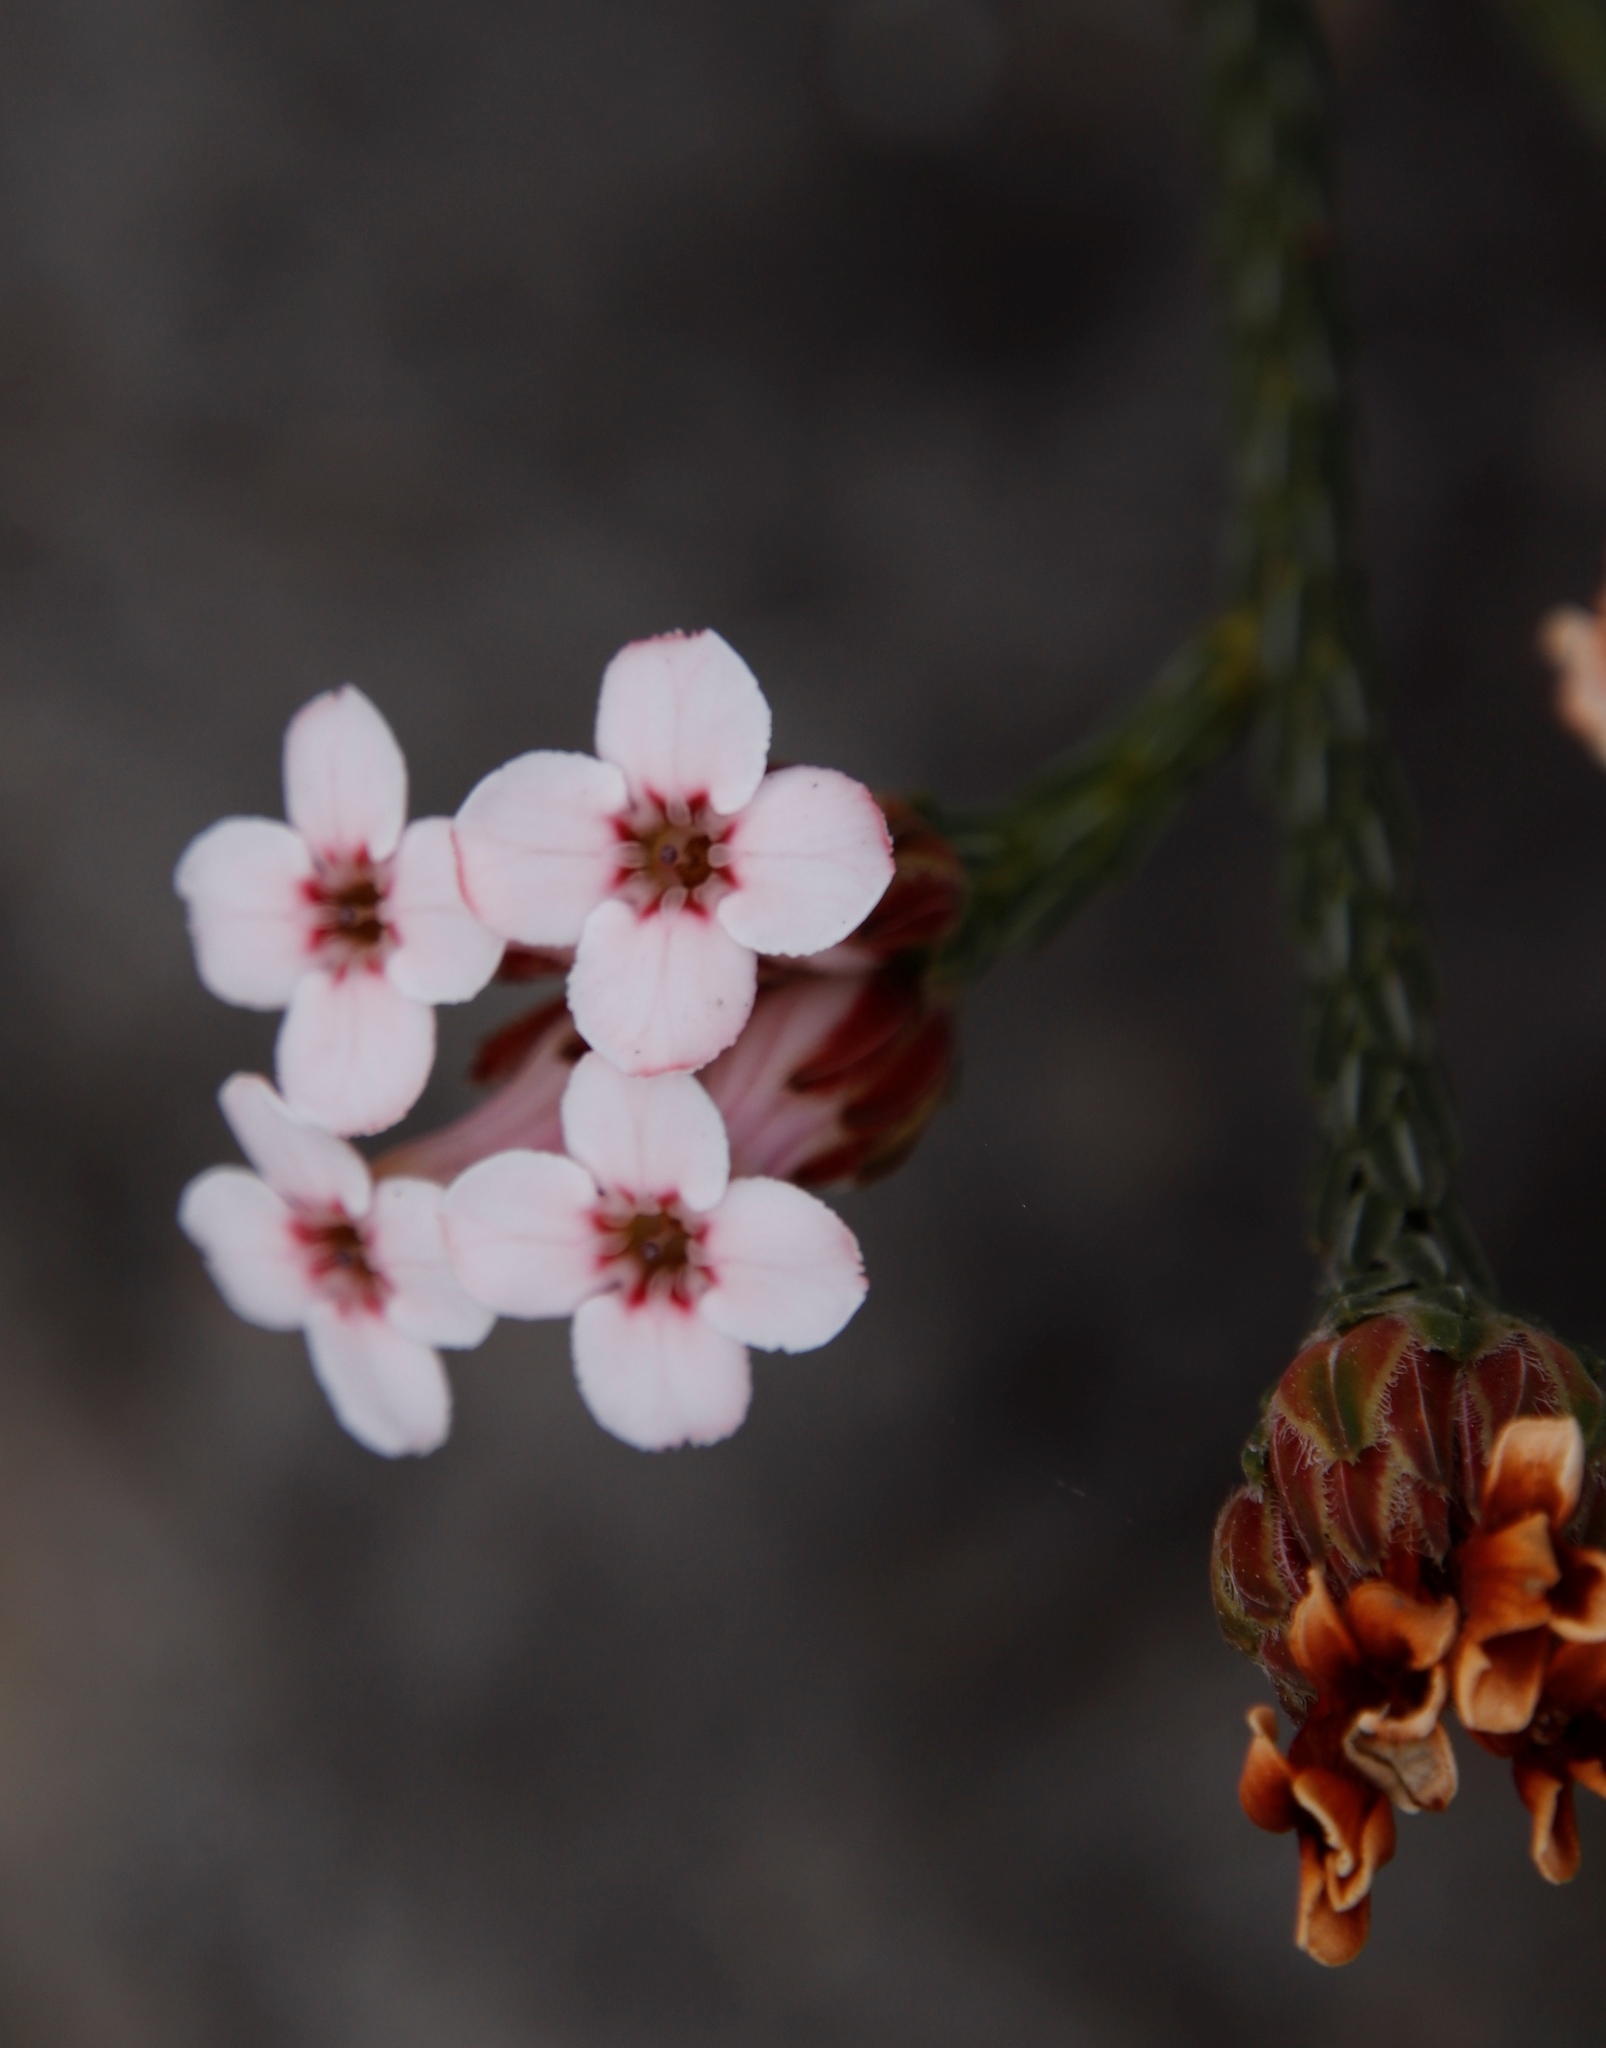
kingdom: Plantae
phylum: Tracheophyta
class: Magnoliopsida
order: Ericales
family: Ericaceae
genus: Erica
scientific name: Erica ampullacea
